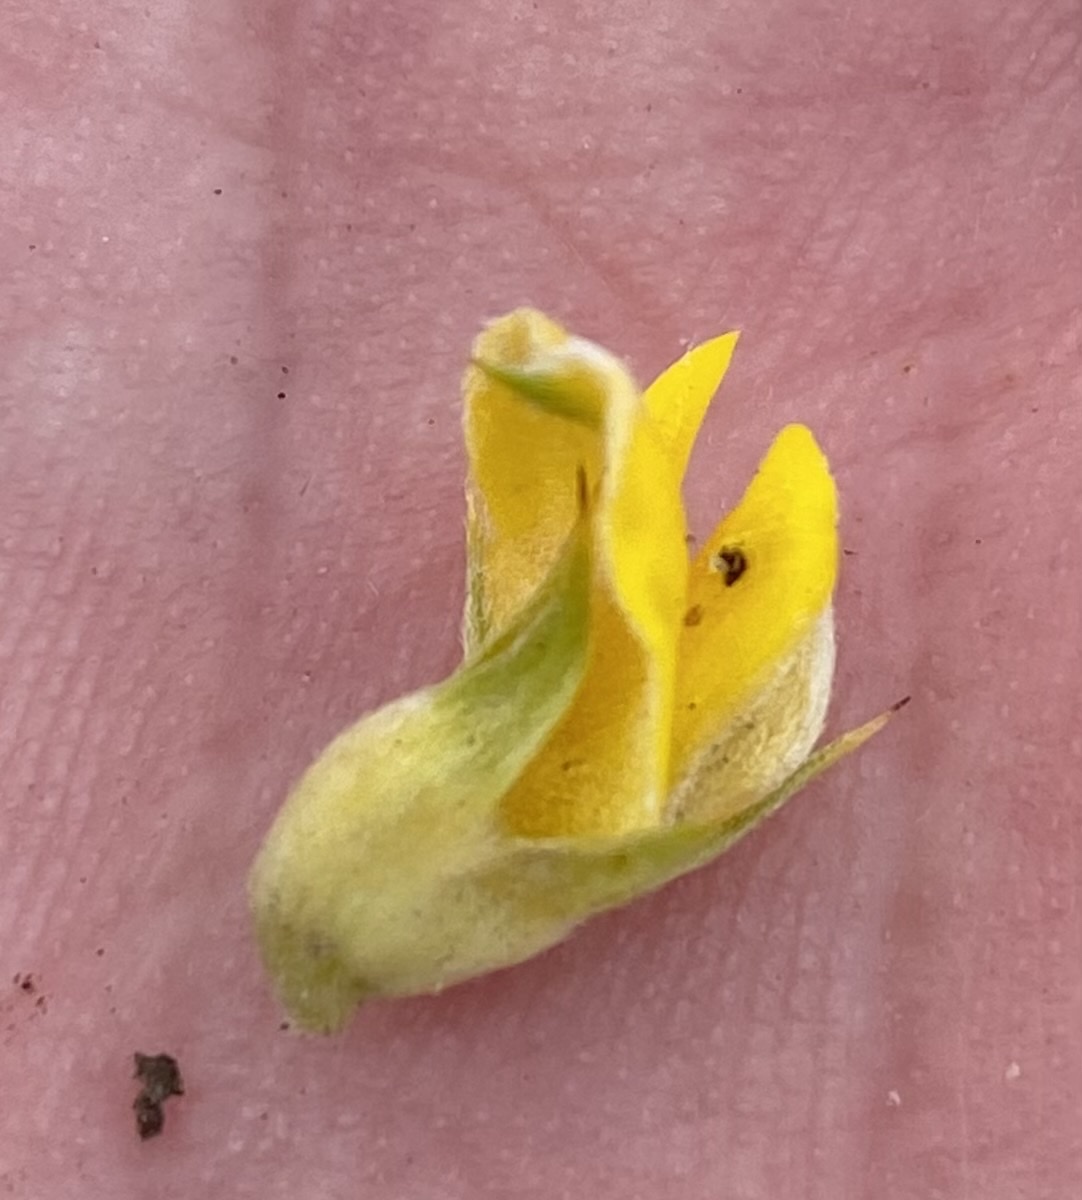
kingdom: Plantae
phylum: Tracheophyta
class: Magnoliopsida
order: Fabales
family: Fabaceae
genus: Aspalathus
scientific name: Aspalathus setacea
